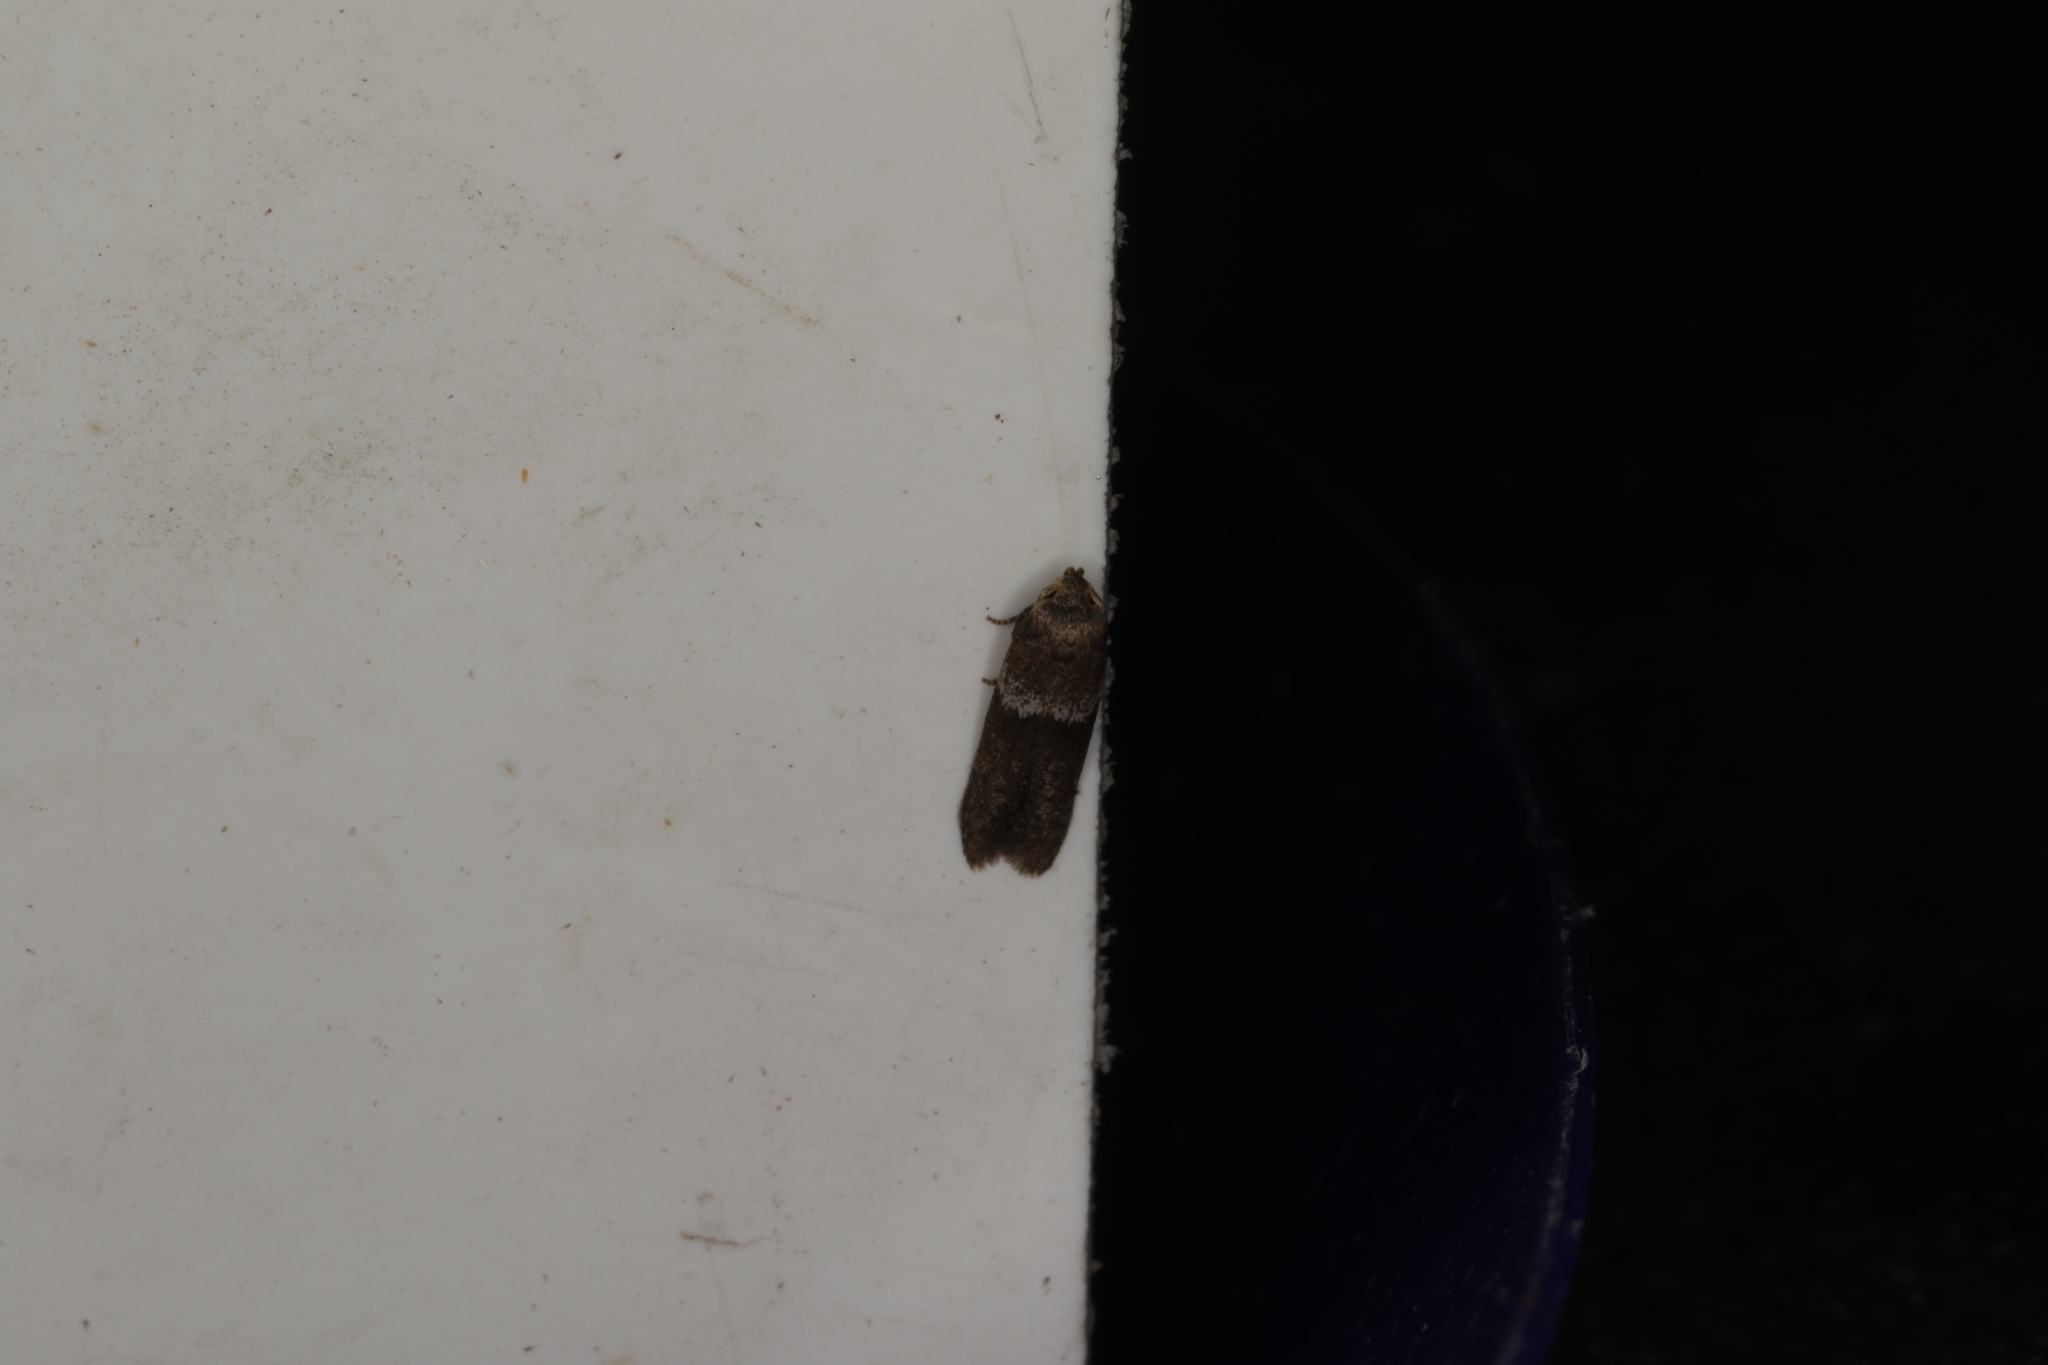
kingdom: Animalia
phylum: Arthropoda
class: Insecta
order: Lepidoptera
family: Blastobasidae
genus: Blastobasis
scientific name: Blastobasis scotia
